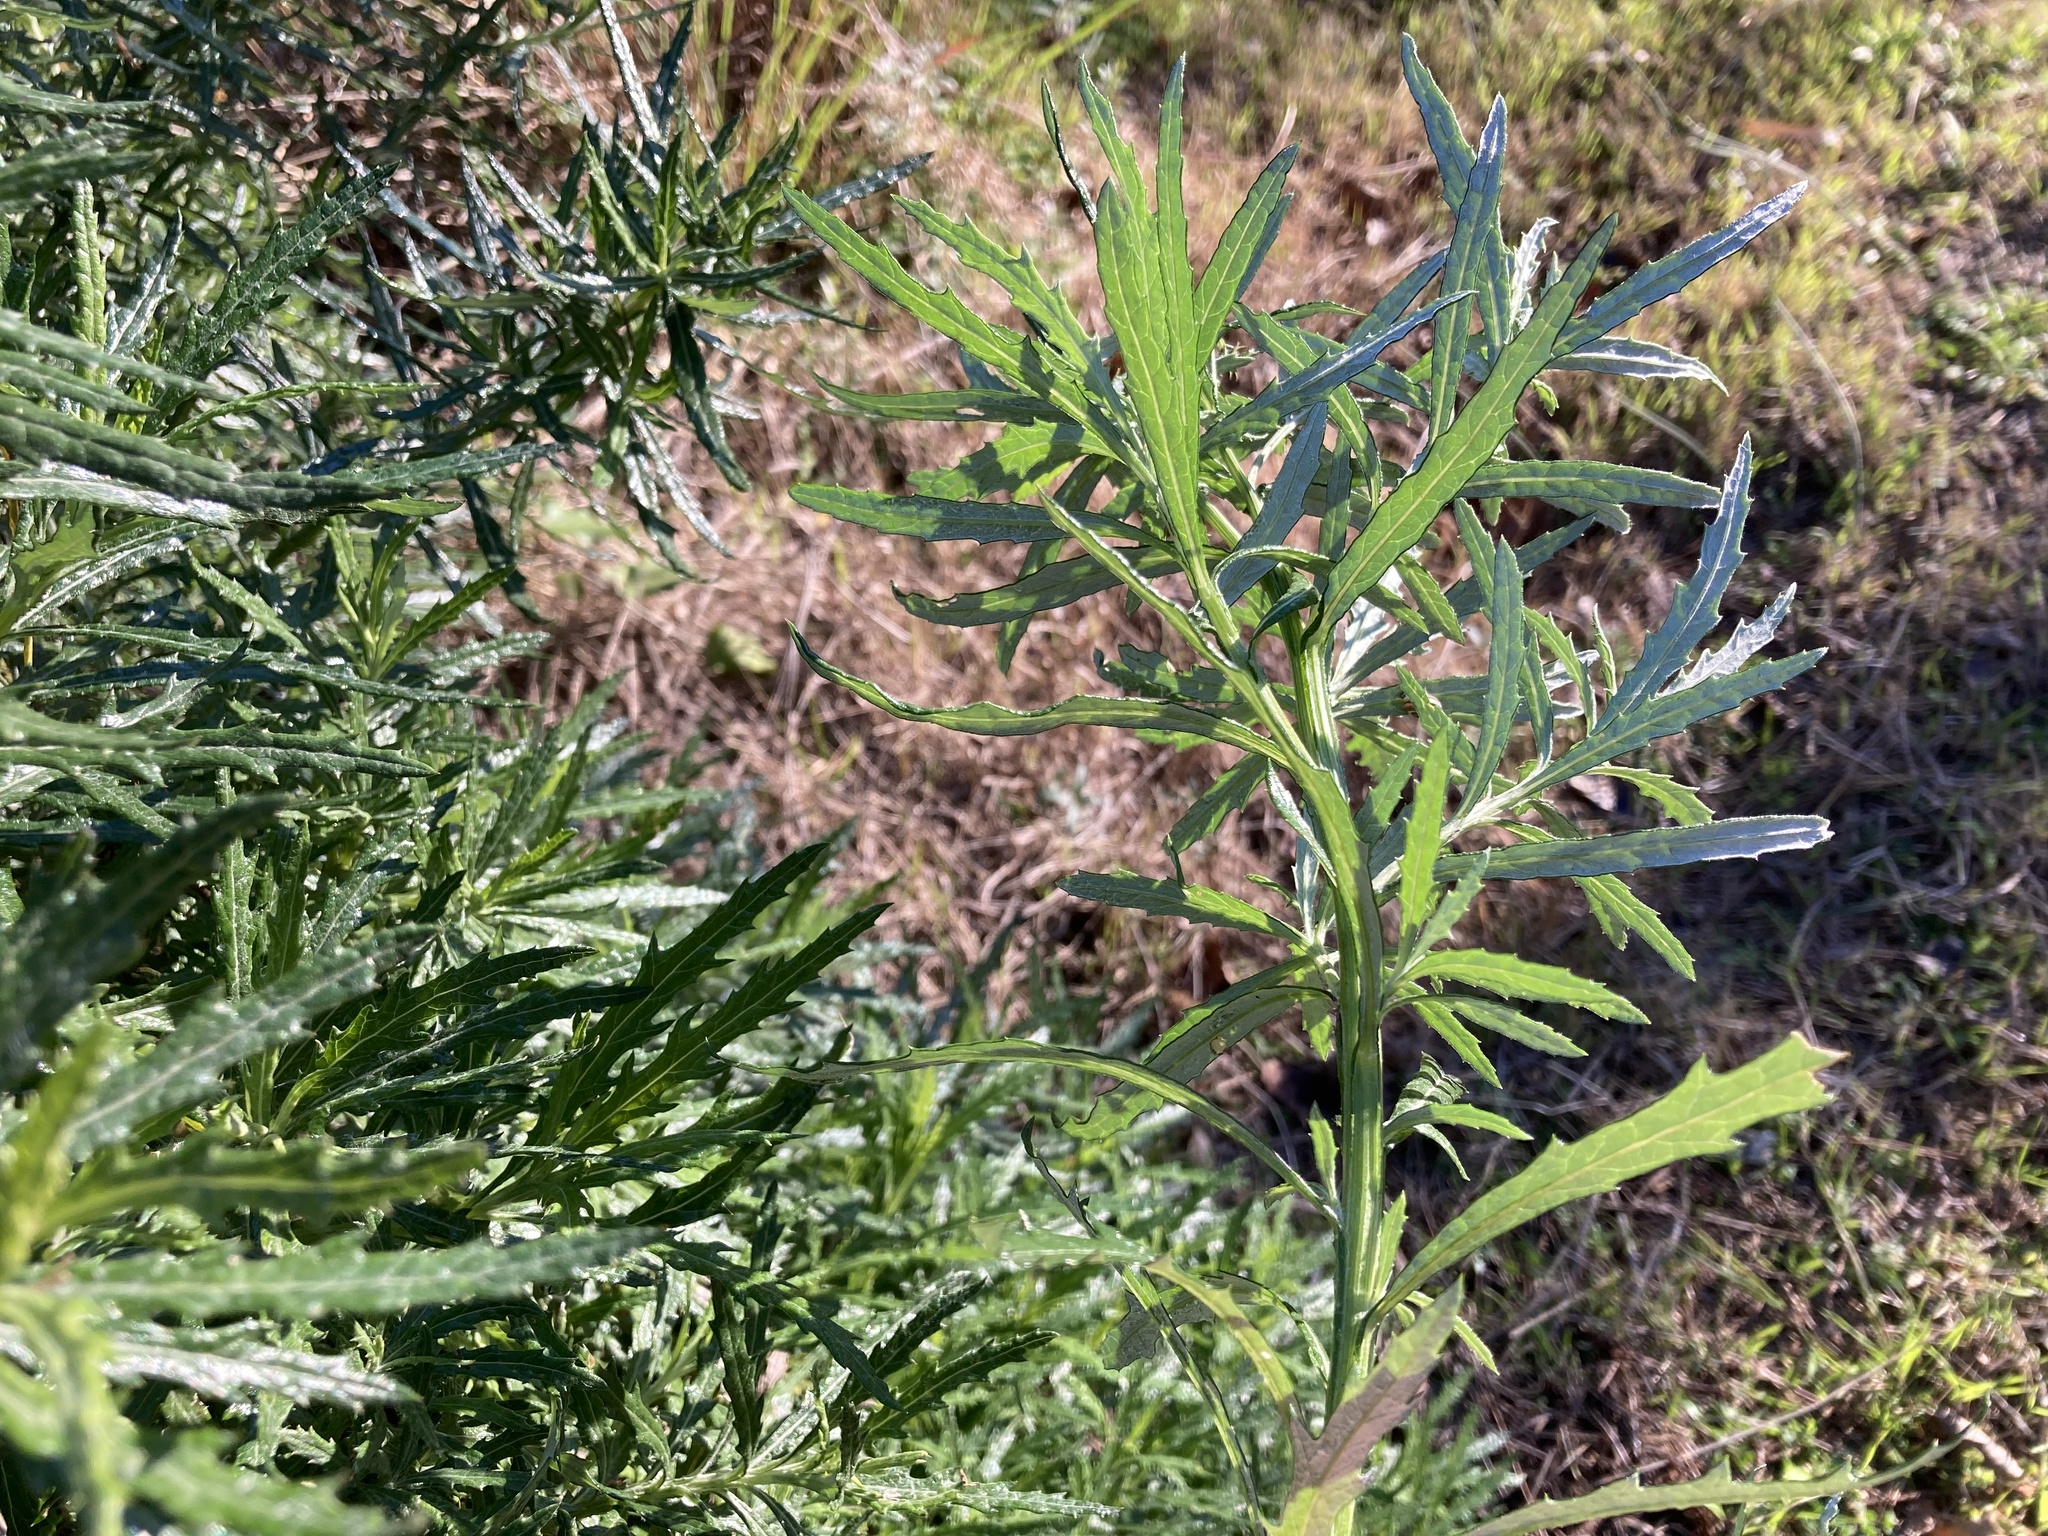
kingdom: Plantae
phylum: Tracheophyta
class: Magnoliopsida
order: Asterales
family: Asteraceae
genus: Senecio
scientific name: Senecio pterophorus
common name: Shoddy ragwort
